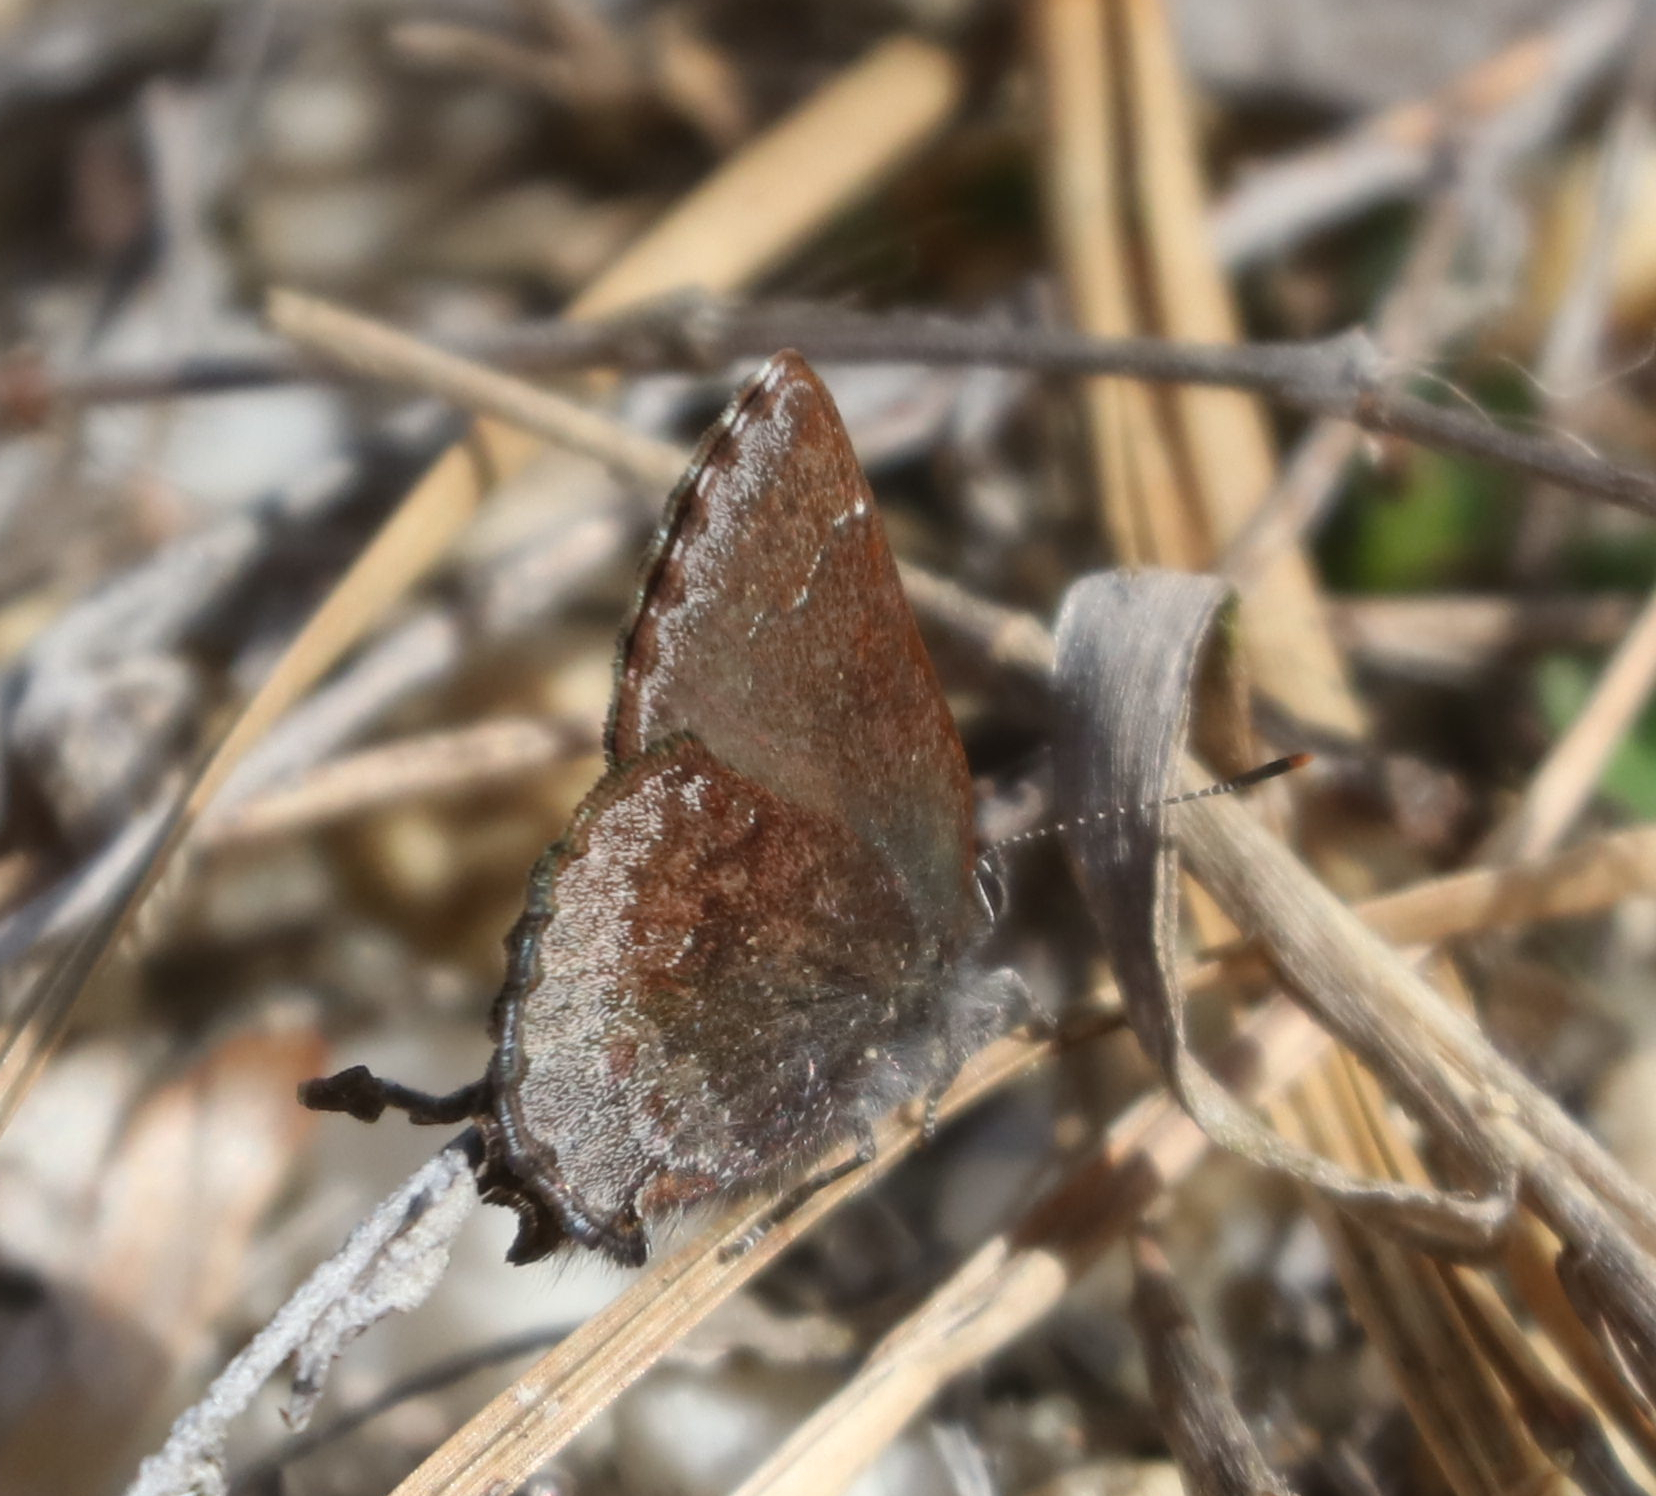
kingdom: Animalia
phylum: Arthropoda
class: Insecta
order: Lepidoptera
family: Lycaenidae
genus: Callophrys
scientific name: Callophrys polios
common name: Hoary elfin
